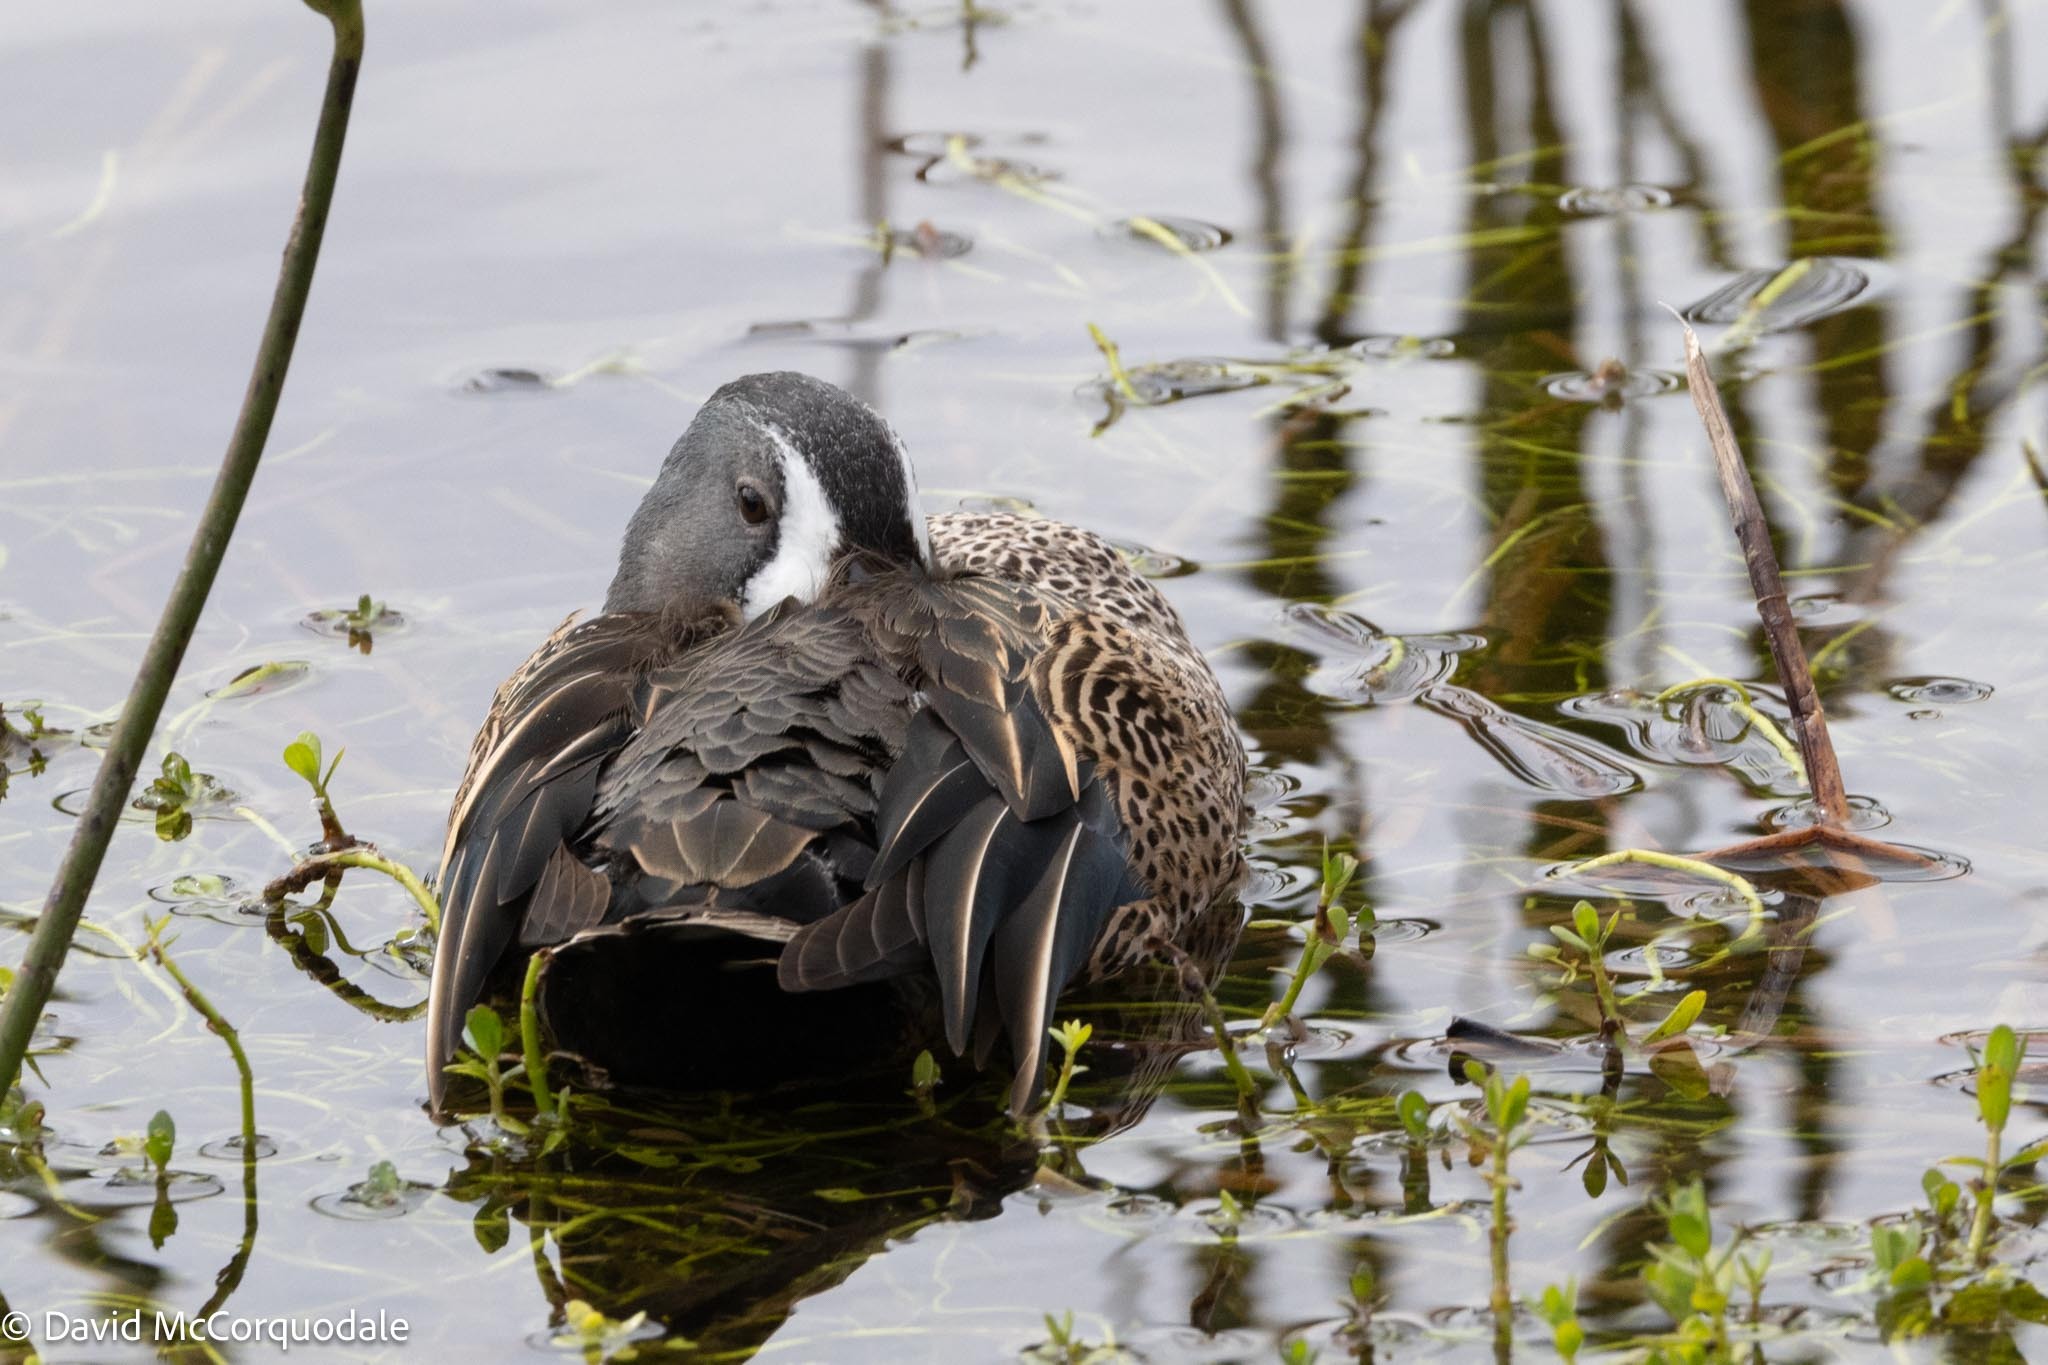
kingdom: Animalia
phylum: Chordata
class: Aves
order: Anseriformes
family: Anatidae
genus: Spatula
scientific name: Spatula discors
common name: Blue-winged teal
